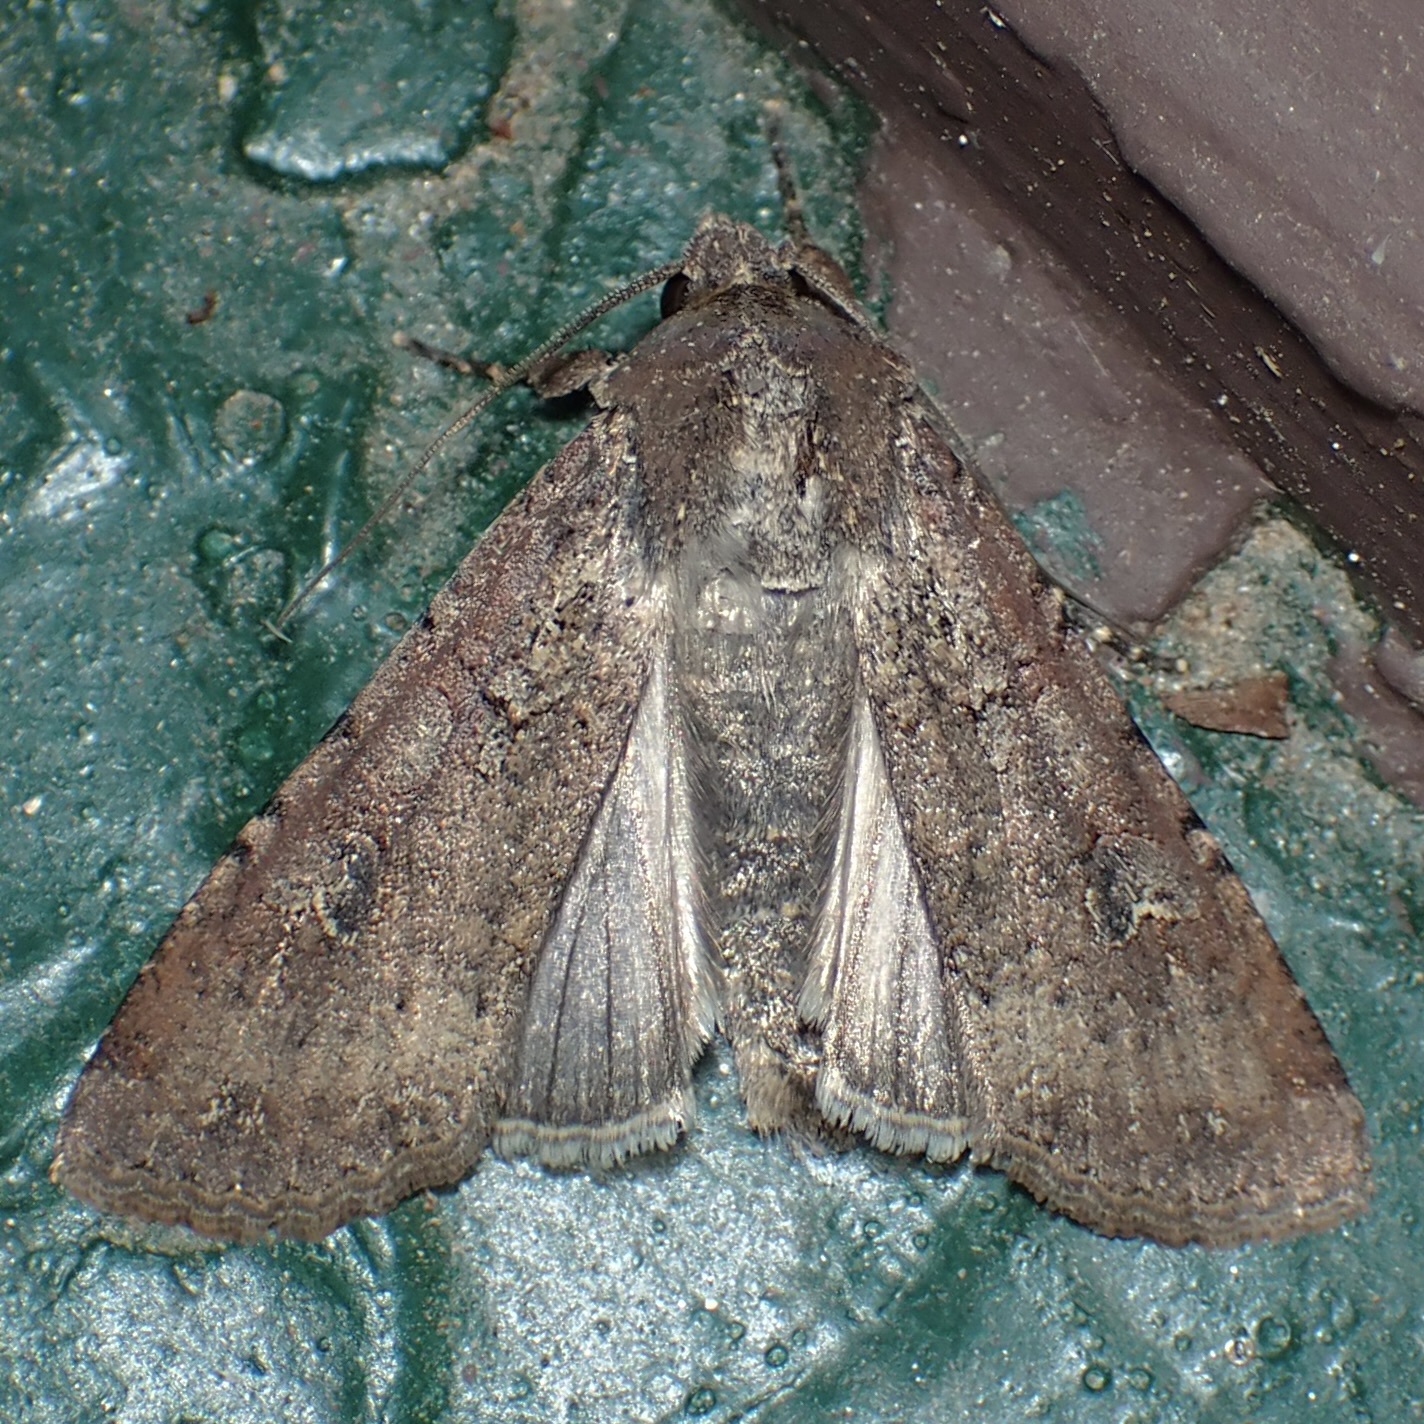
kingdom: Animalia
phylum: Arthropoda
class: Insecta
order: Lepidoptera
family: Noctuidae
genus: Peridroma
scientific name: Peridroma saucia
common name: Pearly underwing
